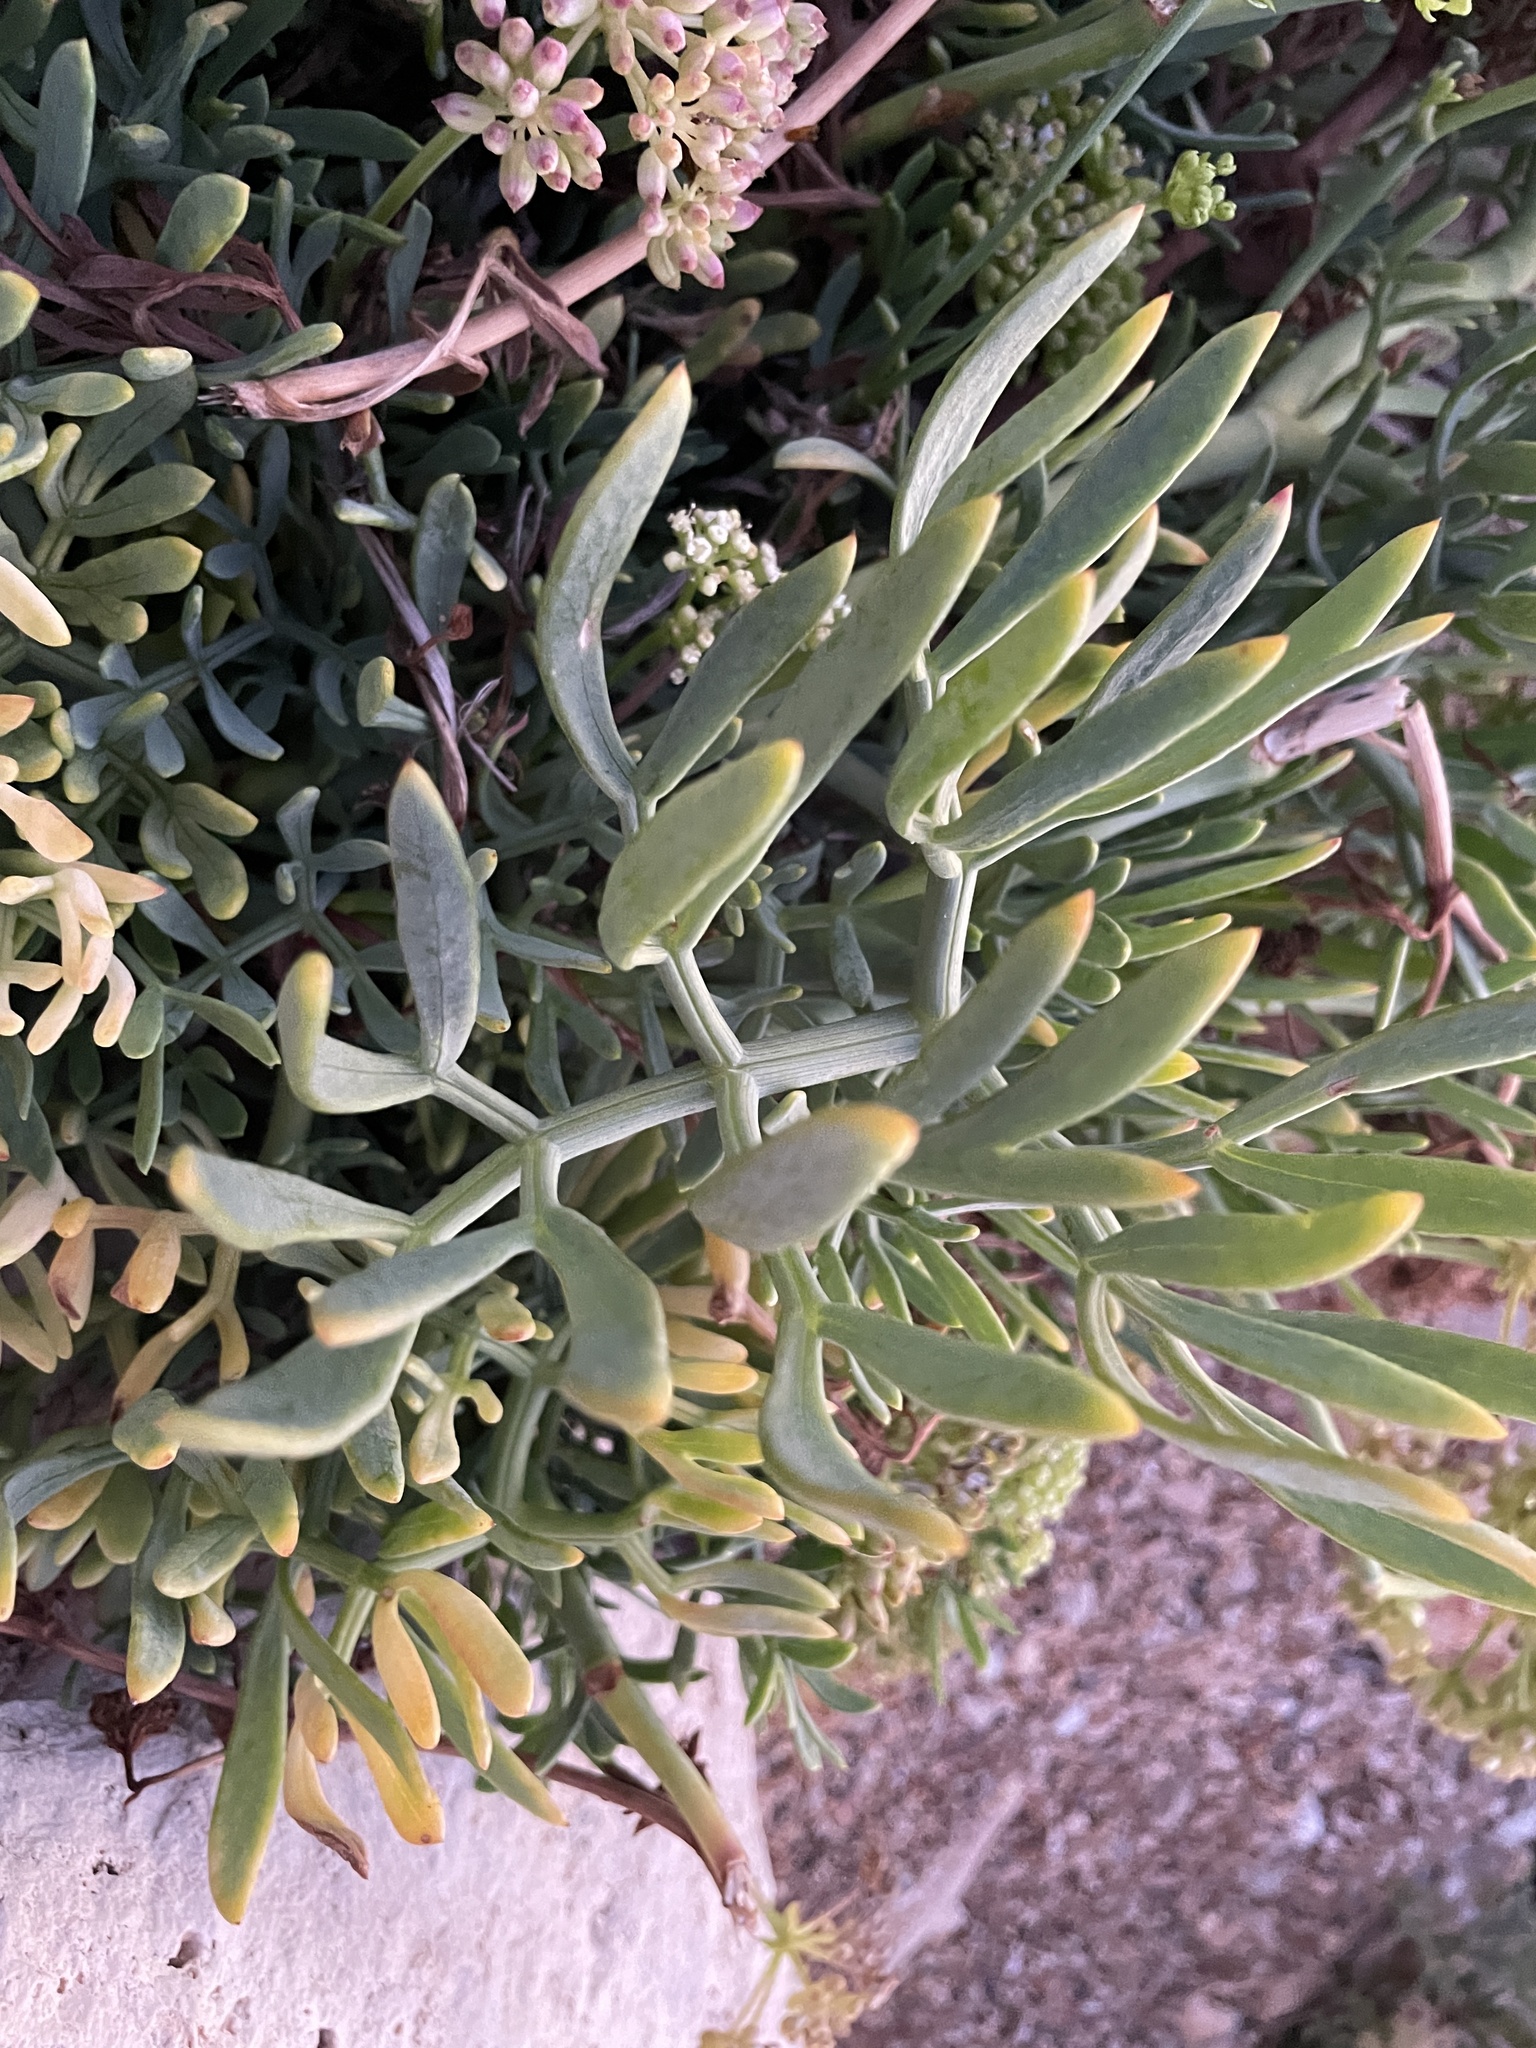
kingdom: Plantae
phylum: Tracheophyta
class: Magnoliopsida
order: Apiales
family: Apiaceae
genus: Crithmum
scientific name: Crithmum maritimum
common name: Rock samphire
